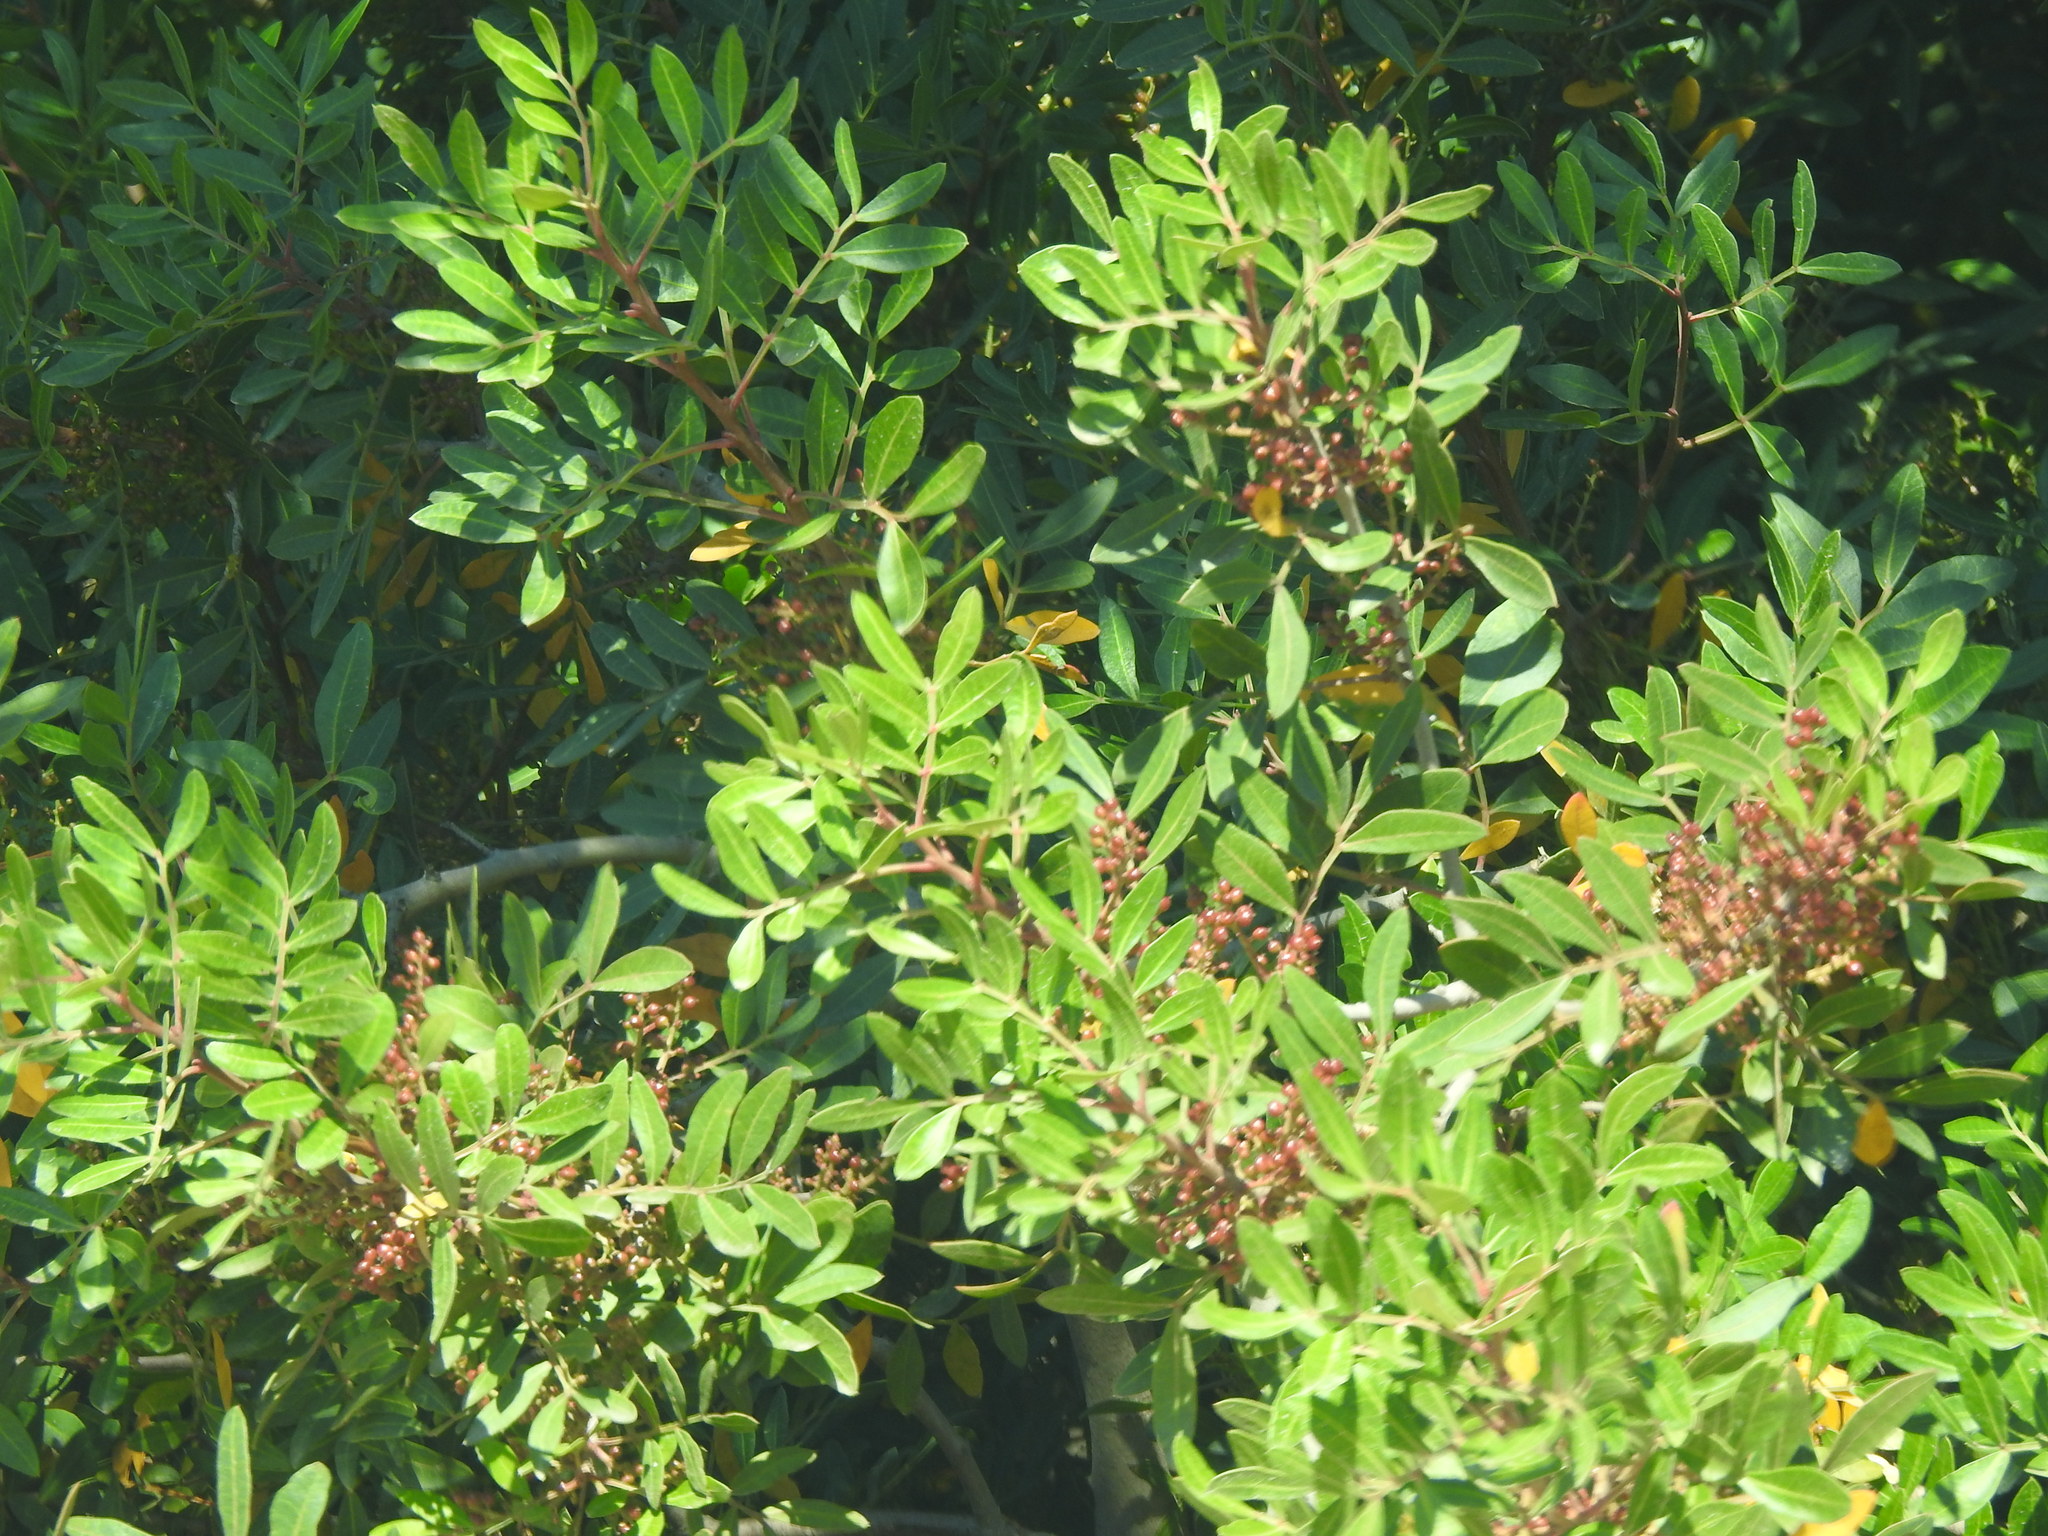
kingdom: Plantae
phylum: Tracheophyta
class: Magnoliopsida
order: Sapindales
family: Anacardiaceae
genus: Pistacia
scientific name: Pistacia lentiscus
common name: Lentisk
